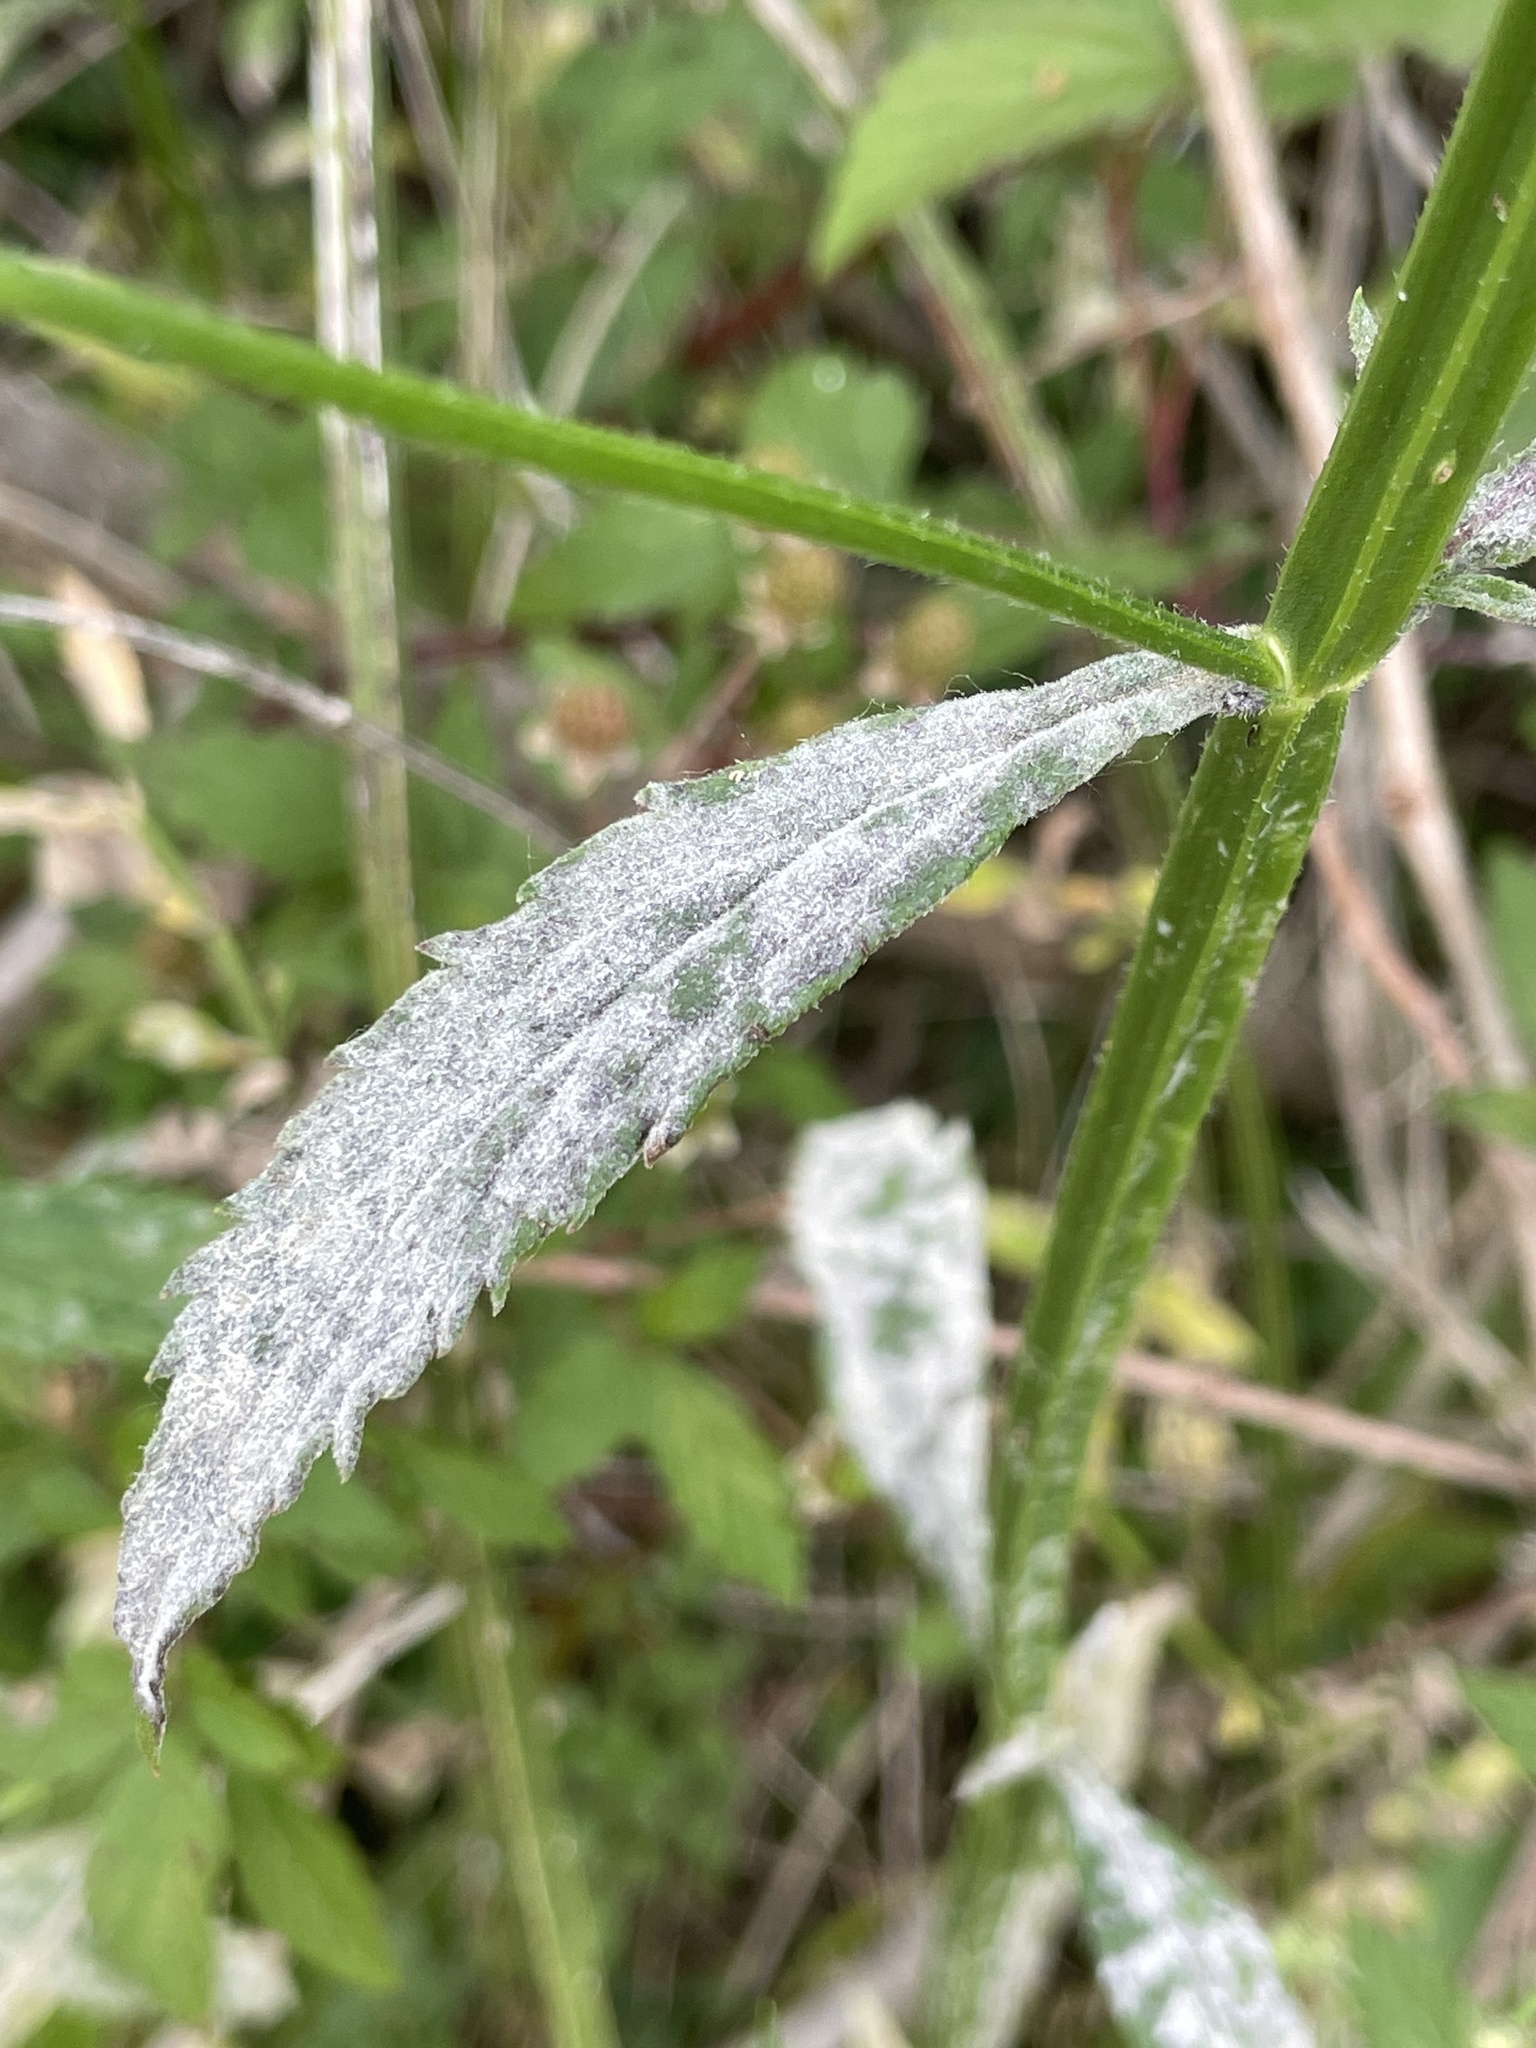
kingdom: Fungi
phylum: Ascomycota
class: Leotiomycetes
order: Helotiales
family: Erysiphaceae
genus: Podosphaera
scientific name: Podosphaera fusca
